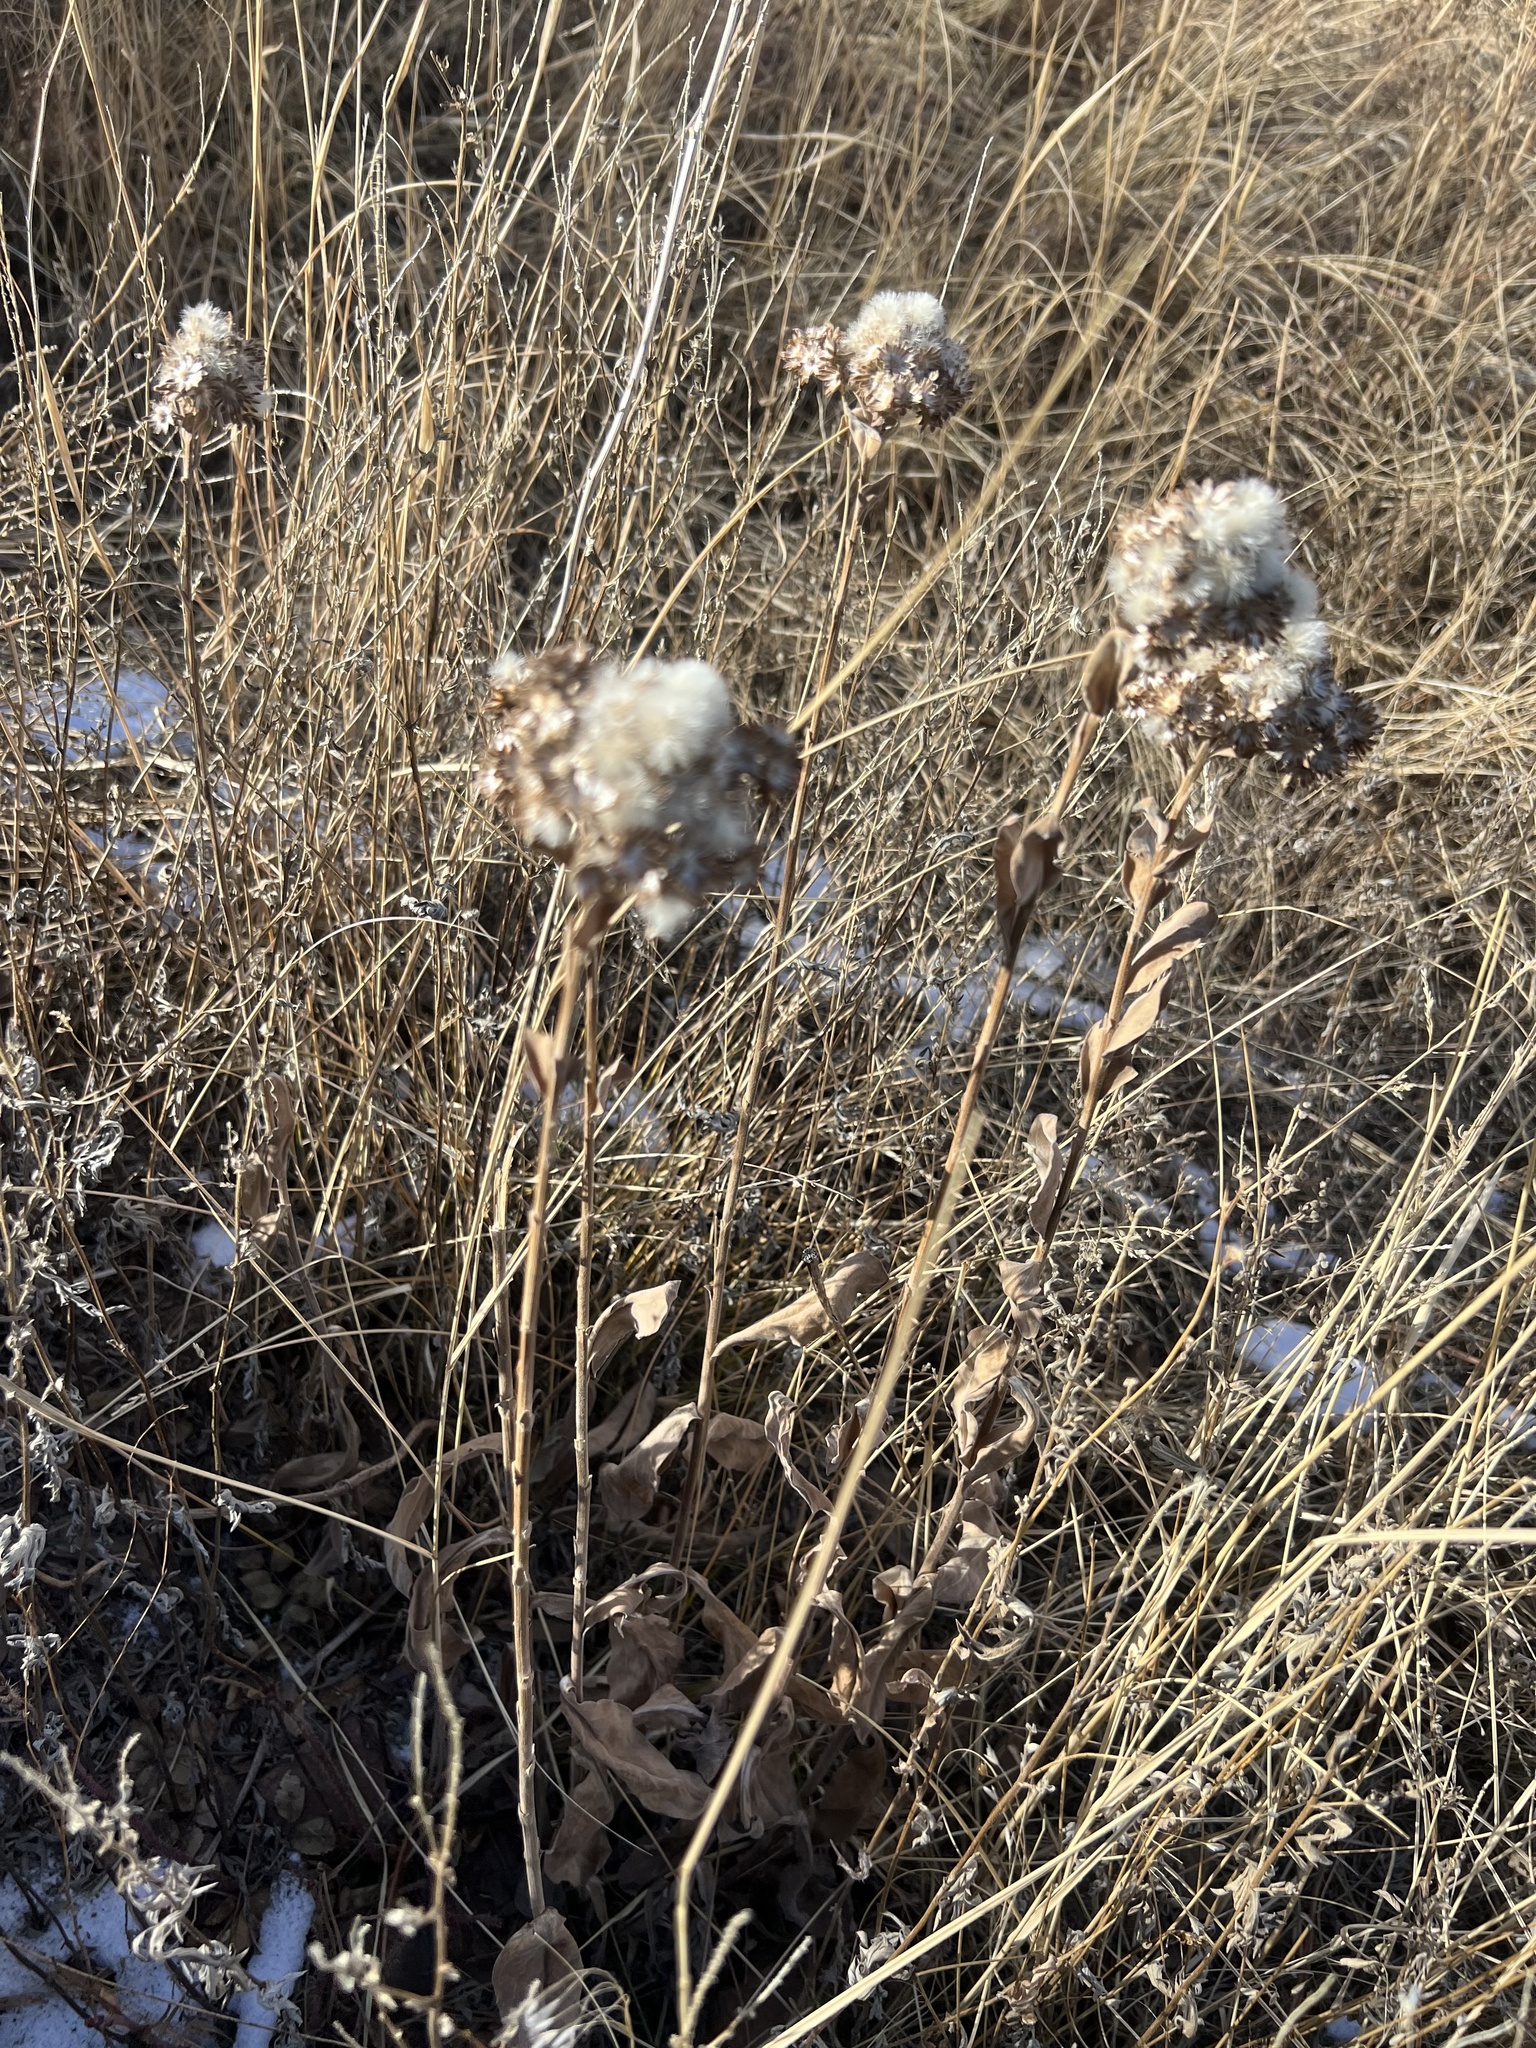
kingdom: Plantae
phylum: Tracheophyta
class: Magnoliopsida
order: Asterales
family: Asteraceae
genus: Solidago
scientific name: Solidago rigida
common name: Rigid goldenrod
